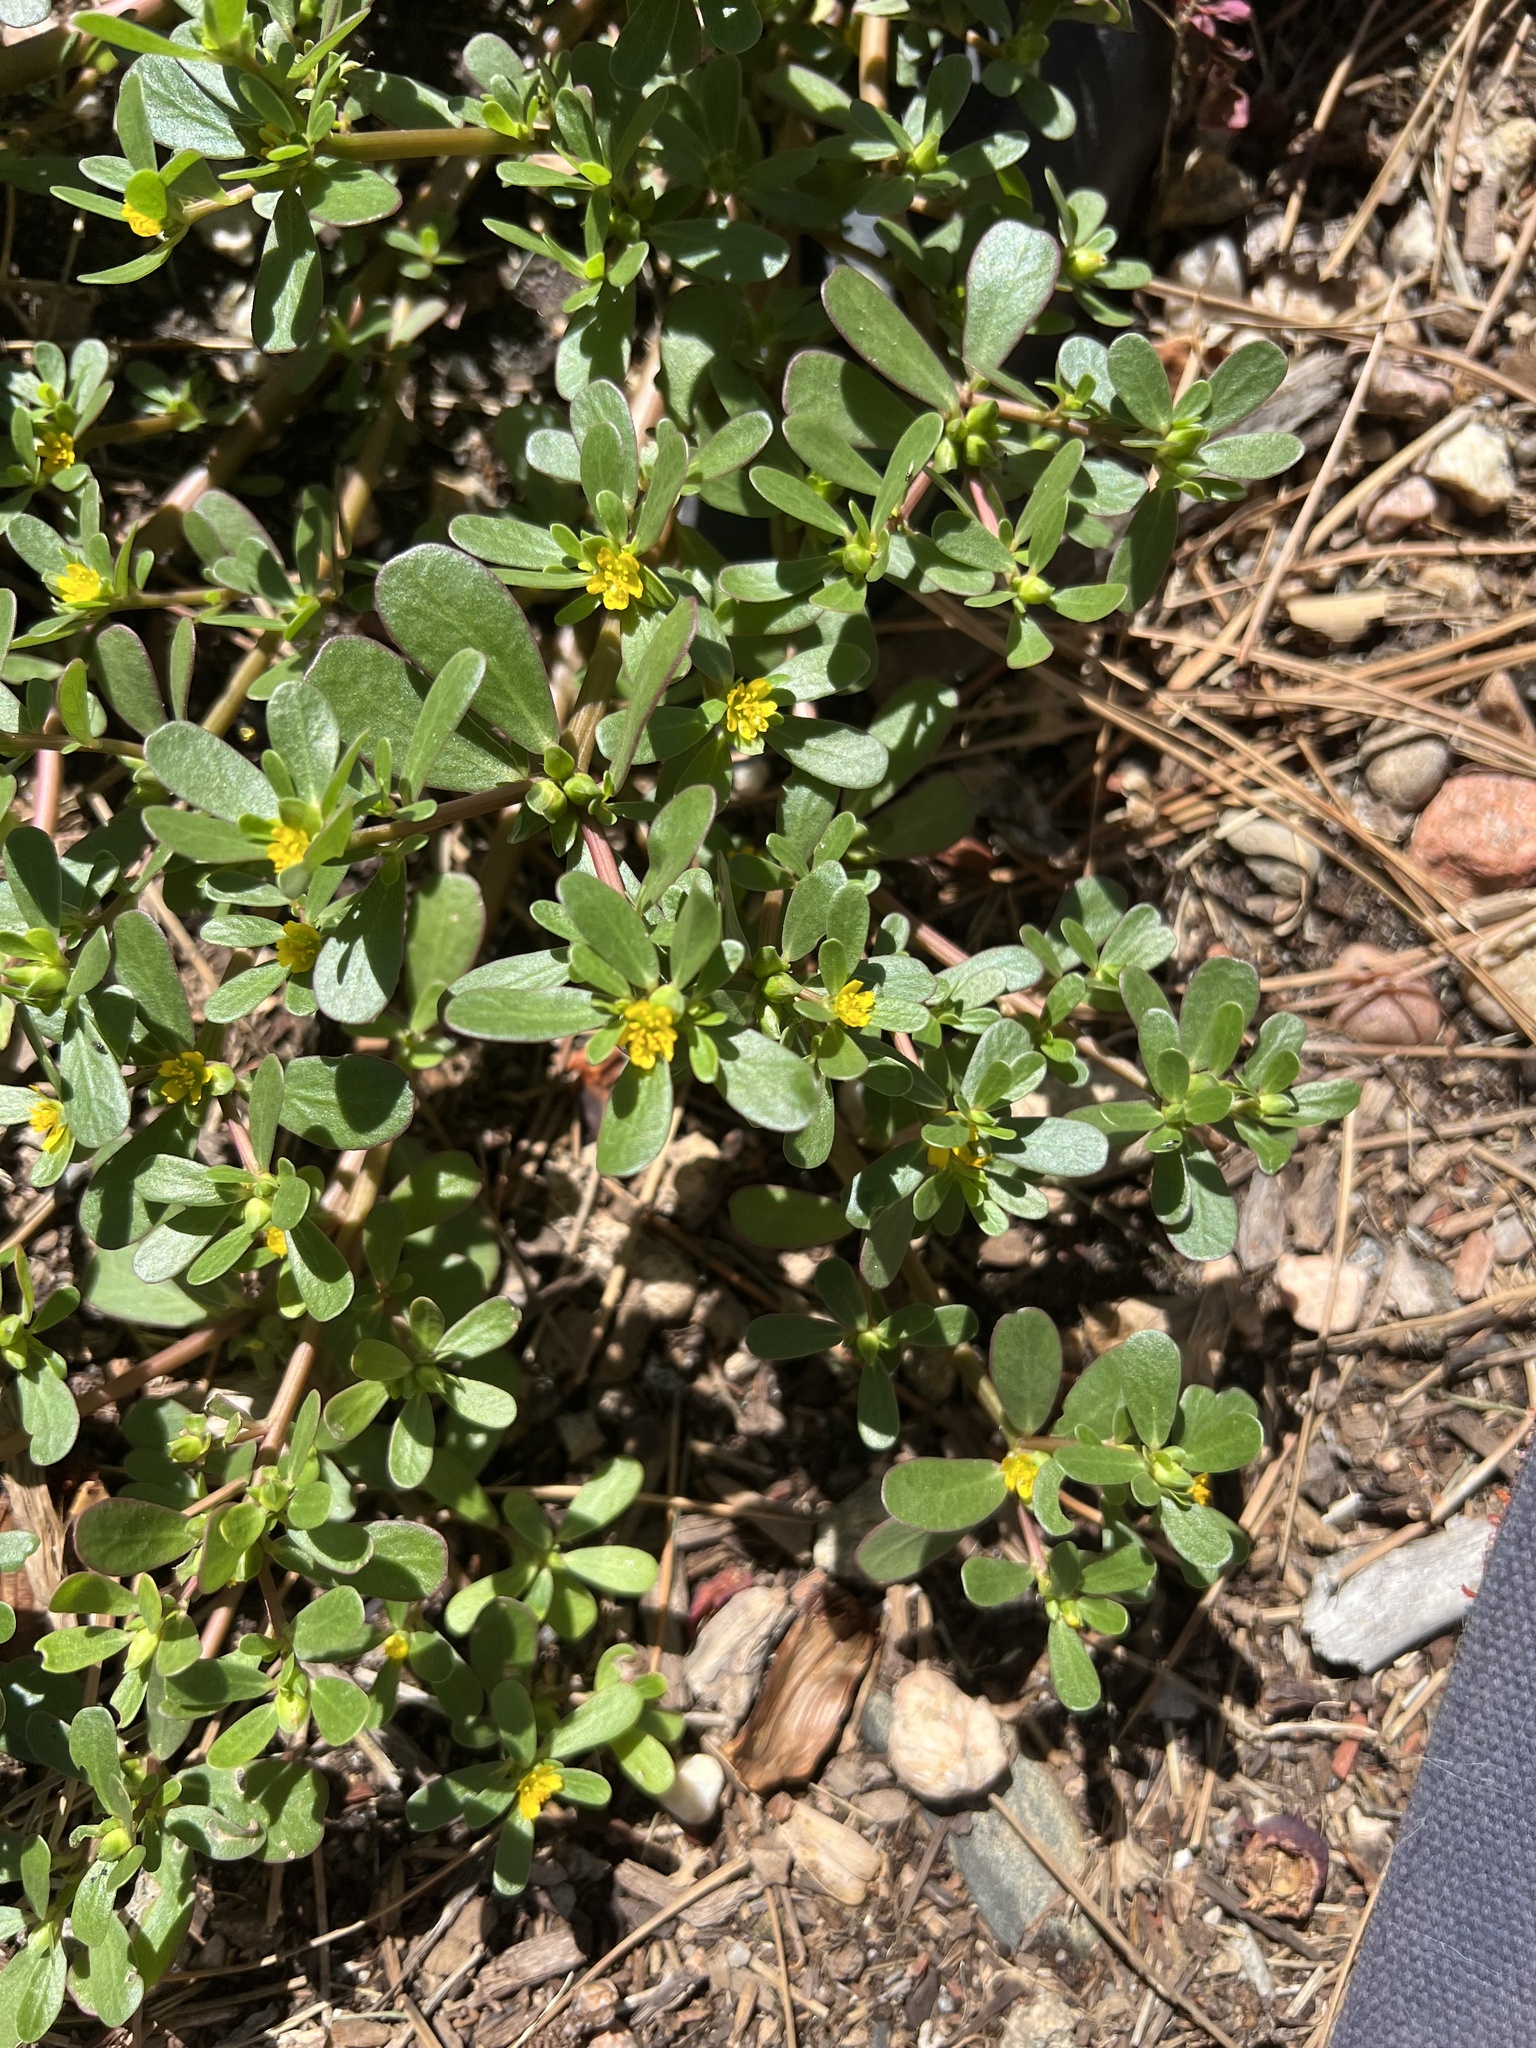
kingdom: Plantae
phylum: Tracheophyta
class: Magnoliopsida
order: Caryophyllales
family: Portulacaceae
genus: Portulaca
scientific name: Portulaca oleracea
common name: Common purslane
